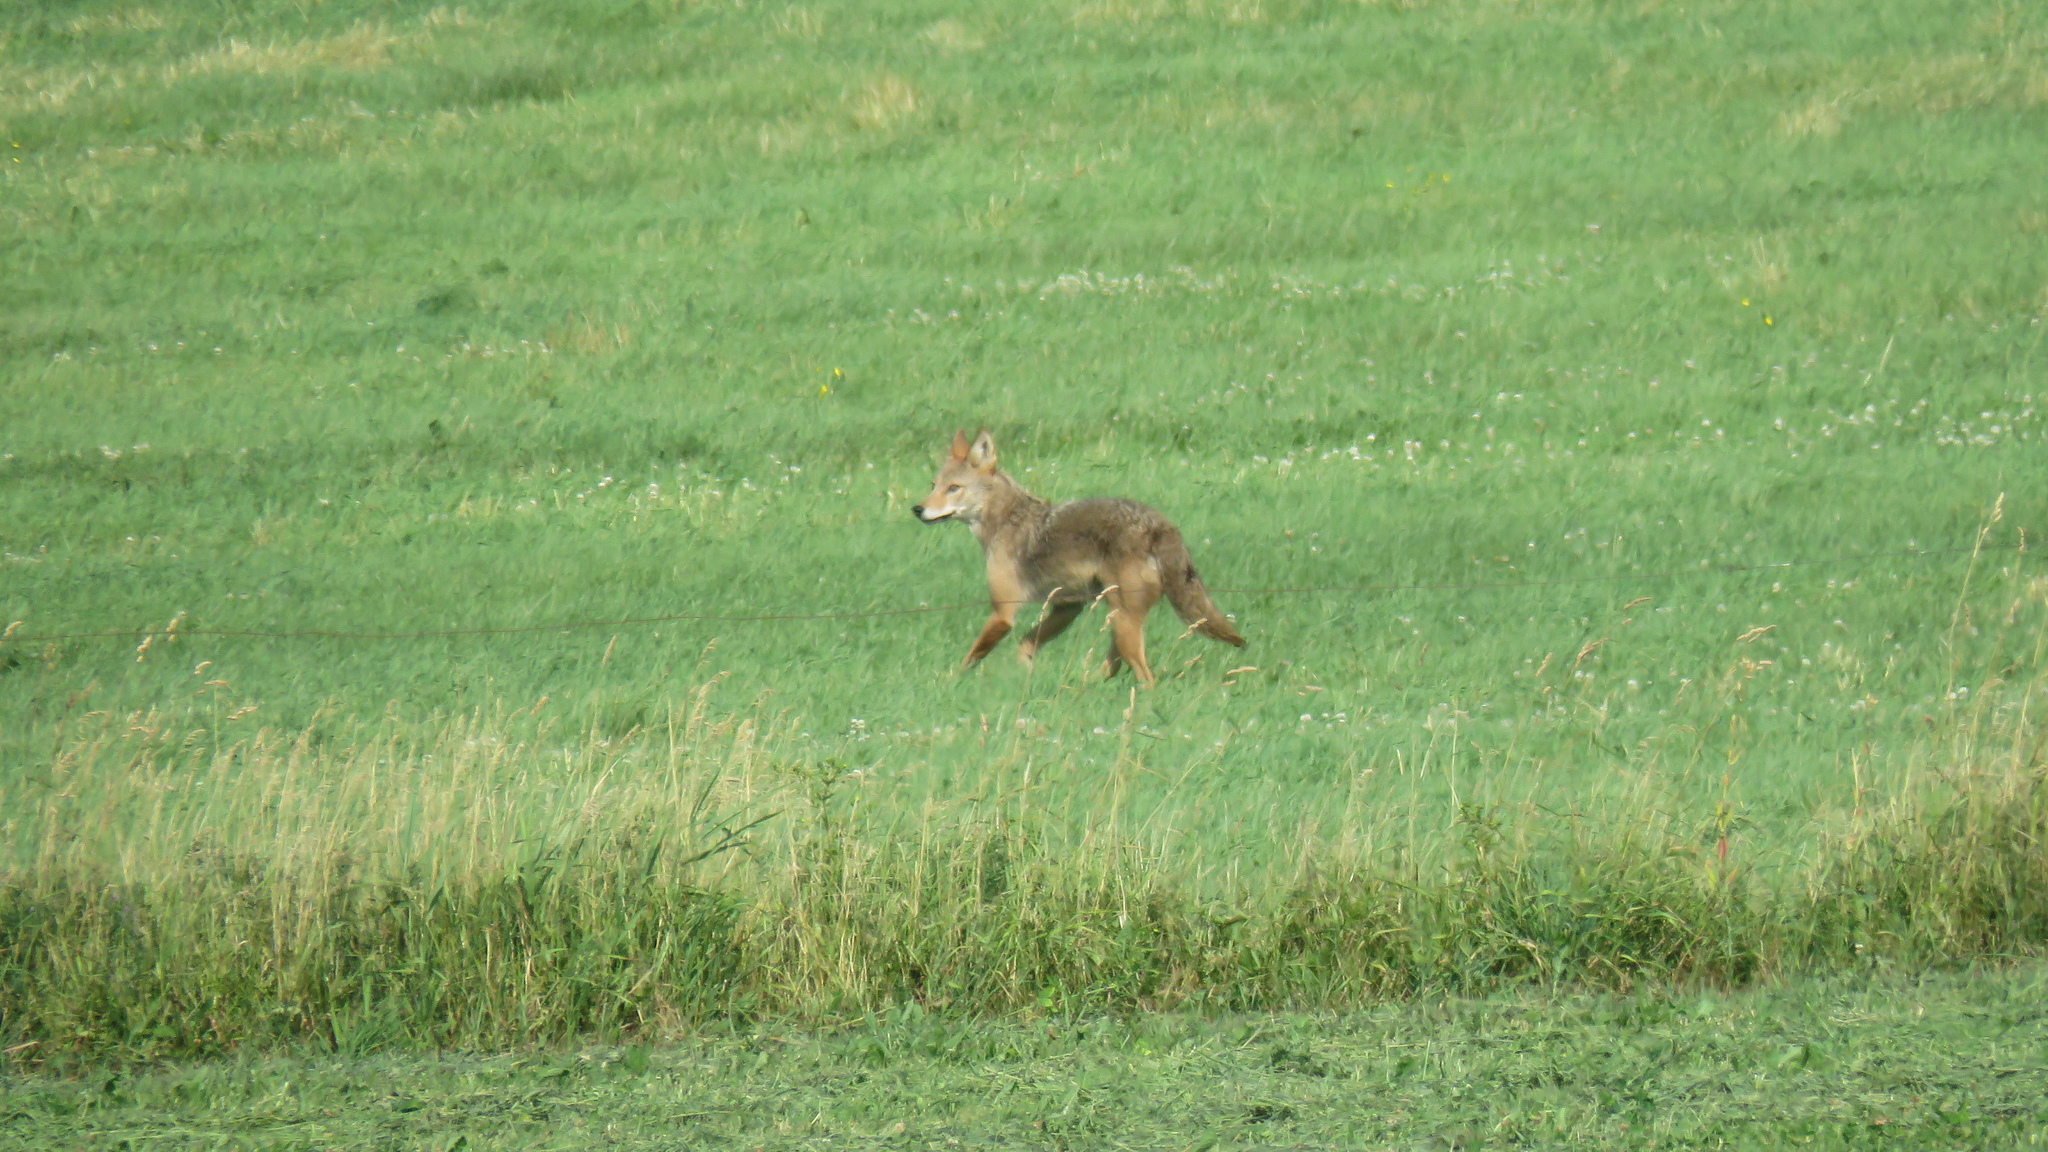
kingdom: Animalia
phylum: Chordata
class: Mammalia
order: Carnivora
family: Canidae
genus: Canis
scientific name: Canis latrans
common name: Coyote
